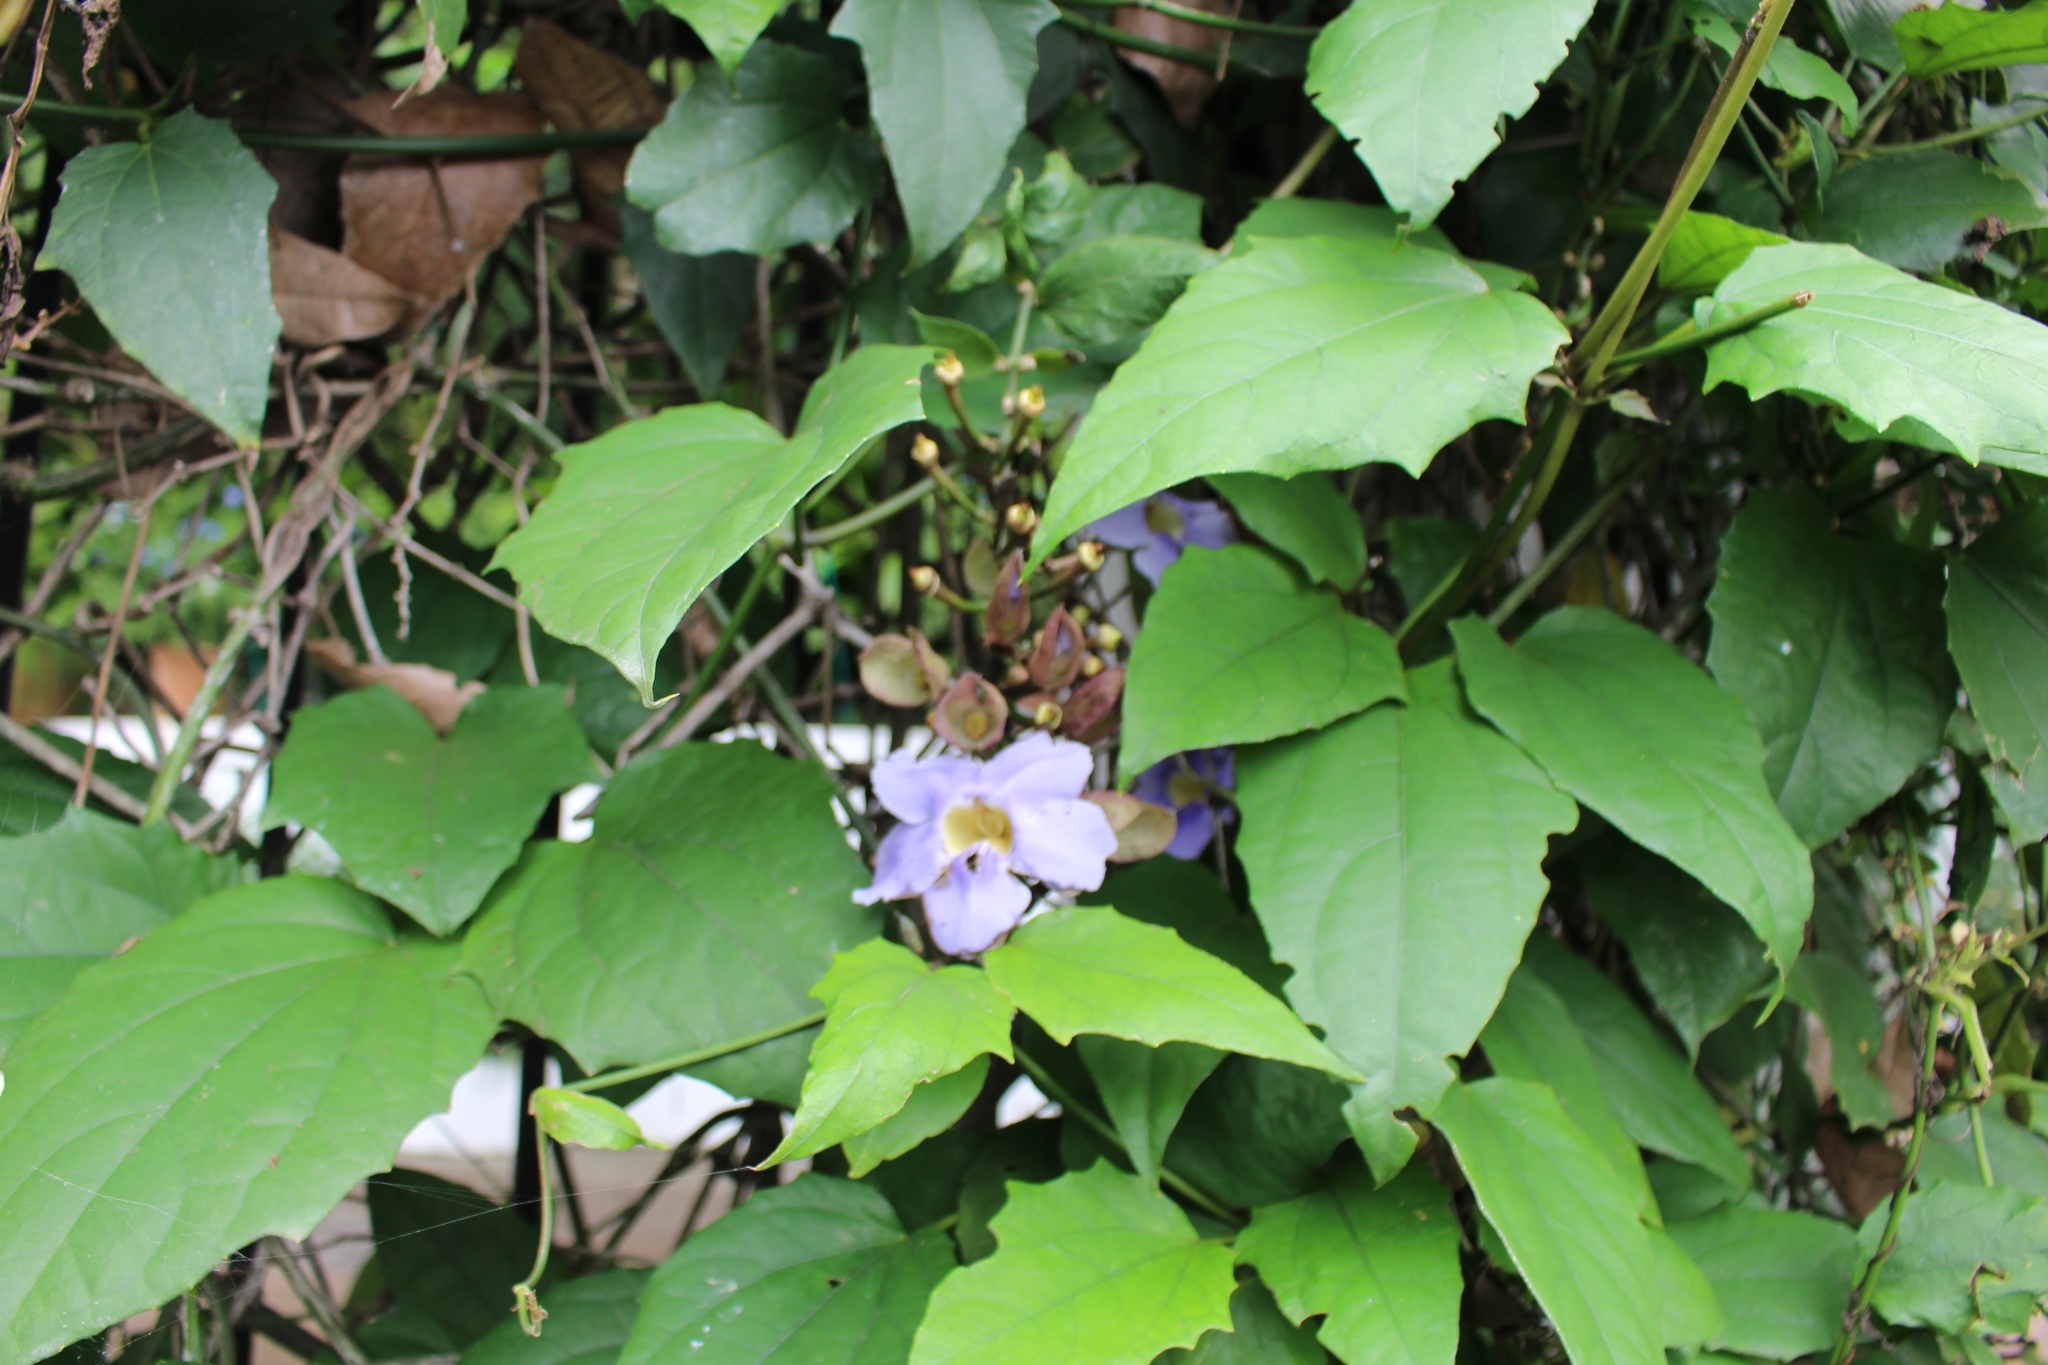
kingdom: Plantae
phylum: Tracheophyta
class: Magnoliopsida
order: Lamiales
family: Acanthaceae
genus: Thunbergia
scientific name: Thunbergia grandiflora
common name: Bengal trumpet
